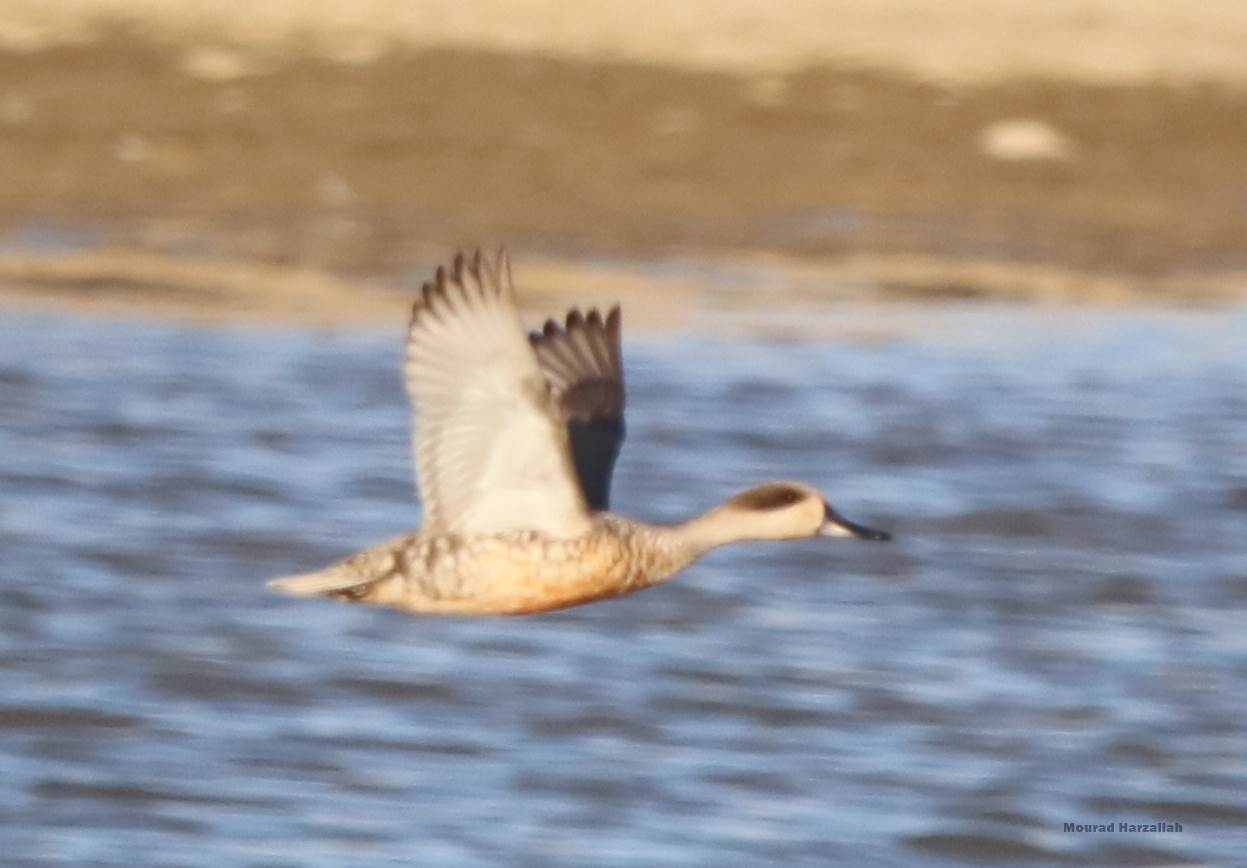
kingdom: Animalia
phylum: Chordata
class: Aves
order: Anseriformes
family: Anatidae
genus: Marmaronetta
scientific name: Marmaronetta angustirostris
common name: Marbled duck
